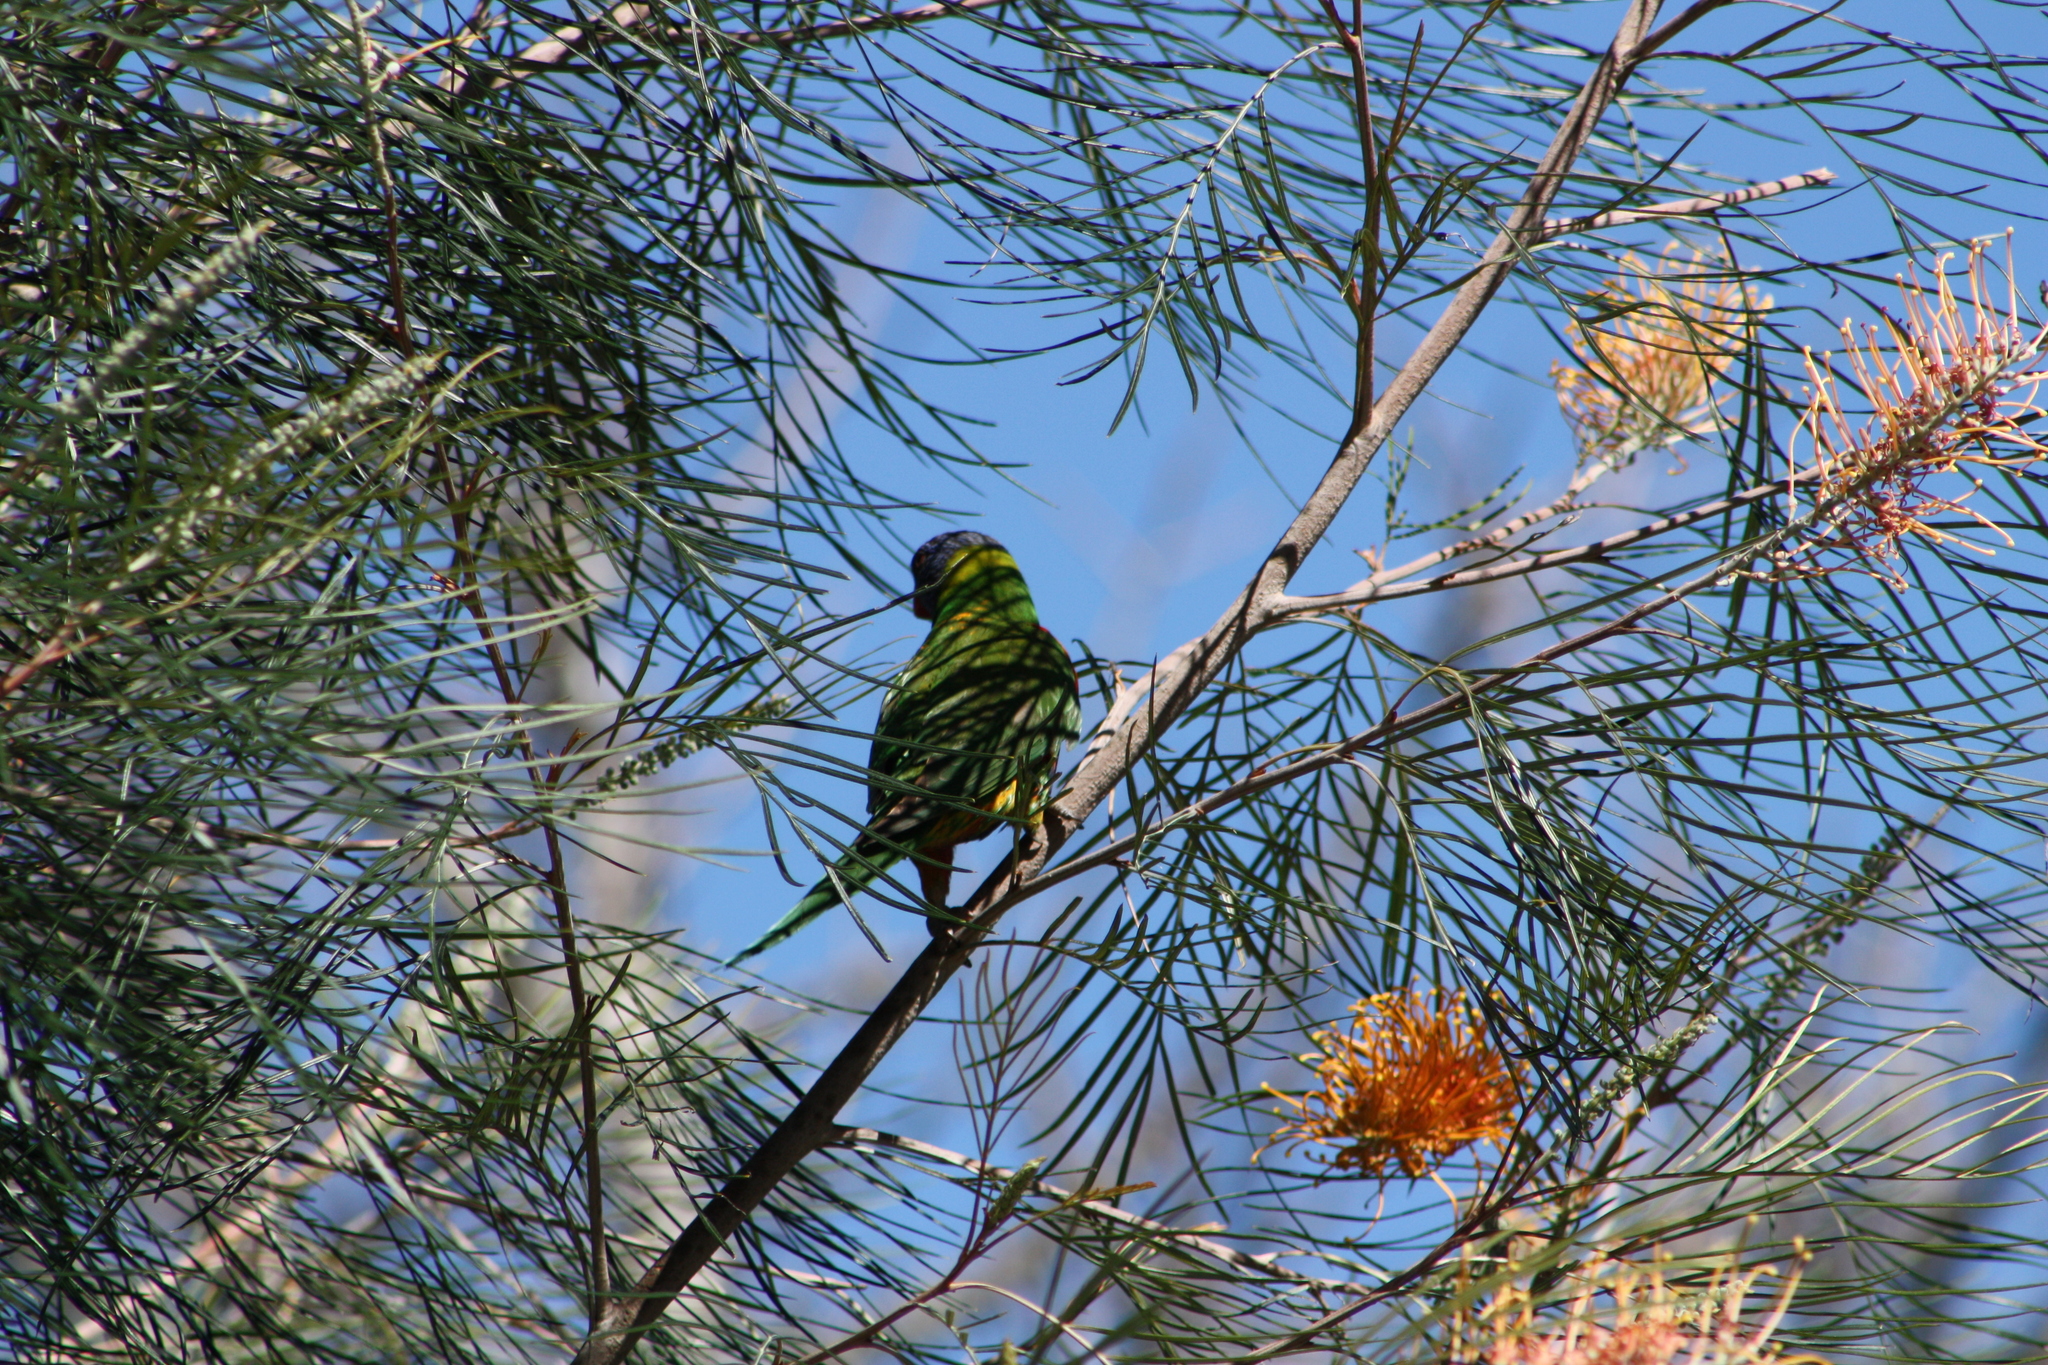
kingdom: Animalia
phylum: Chordata
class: Aves
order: Psittaciformes
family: Psittacidae
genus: Trichoglossus
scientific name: Trichoglossus haematodus
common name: Coconut lorikeet
